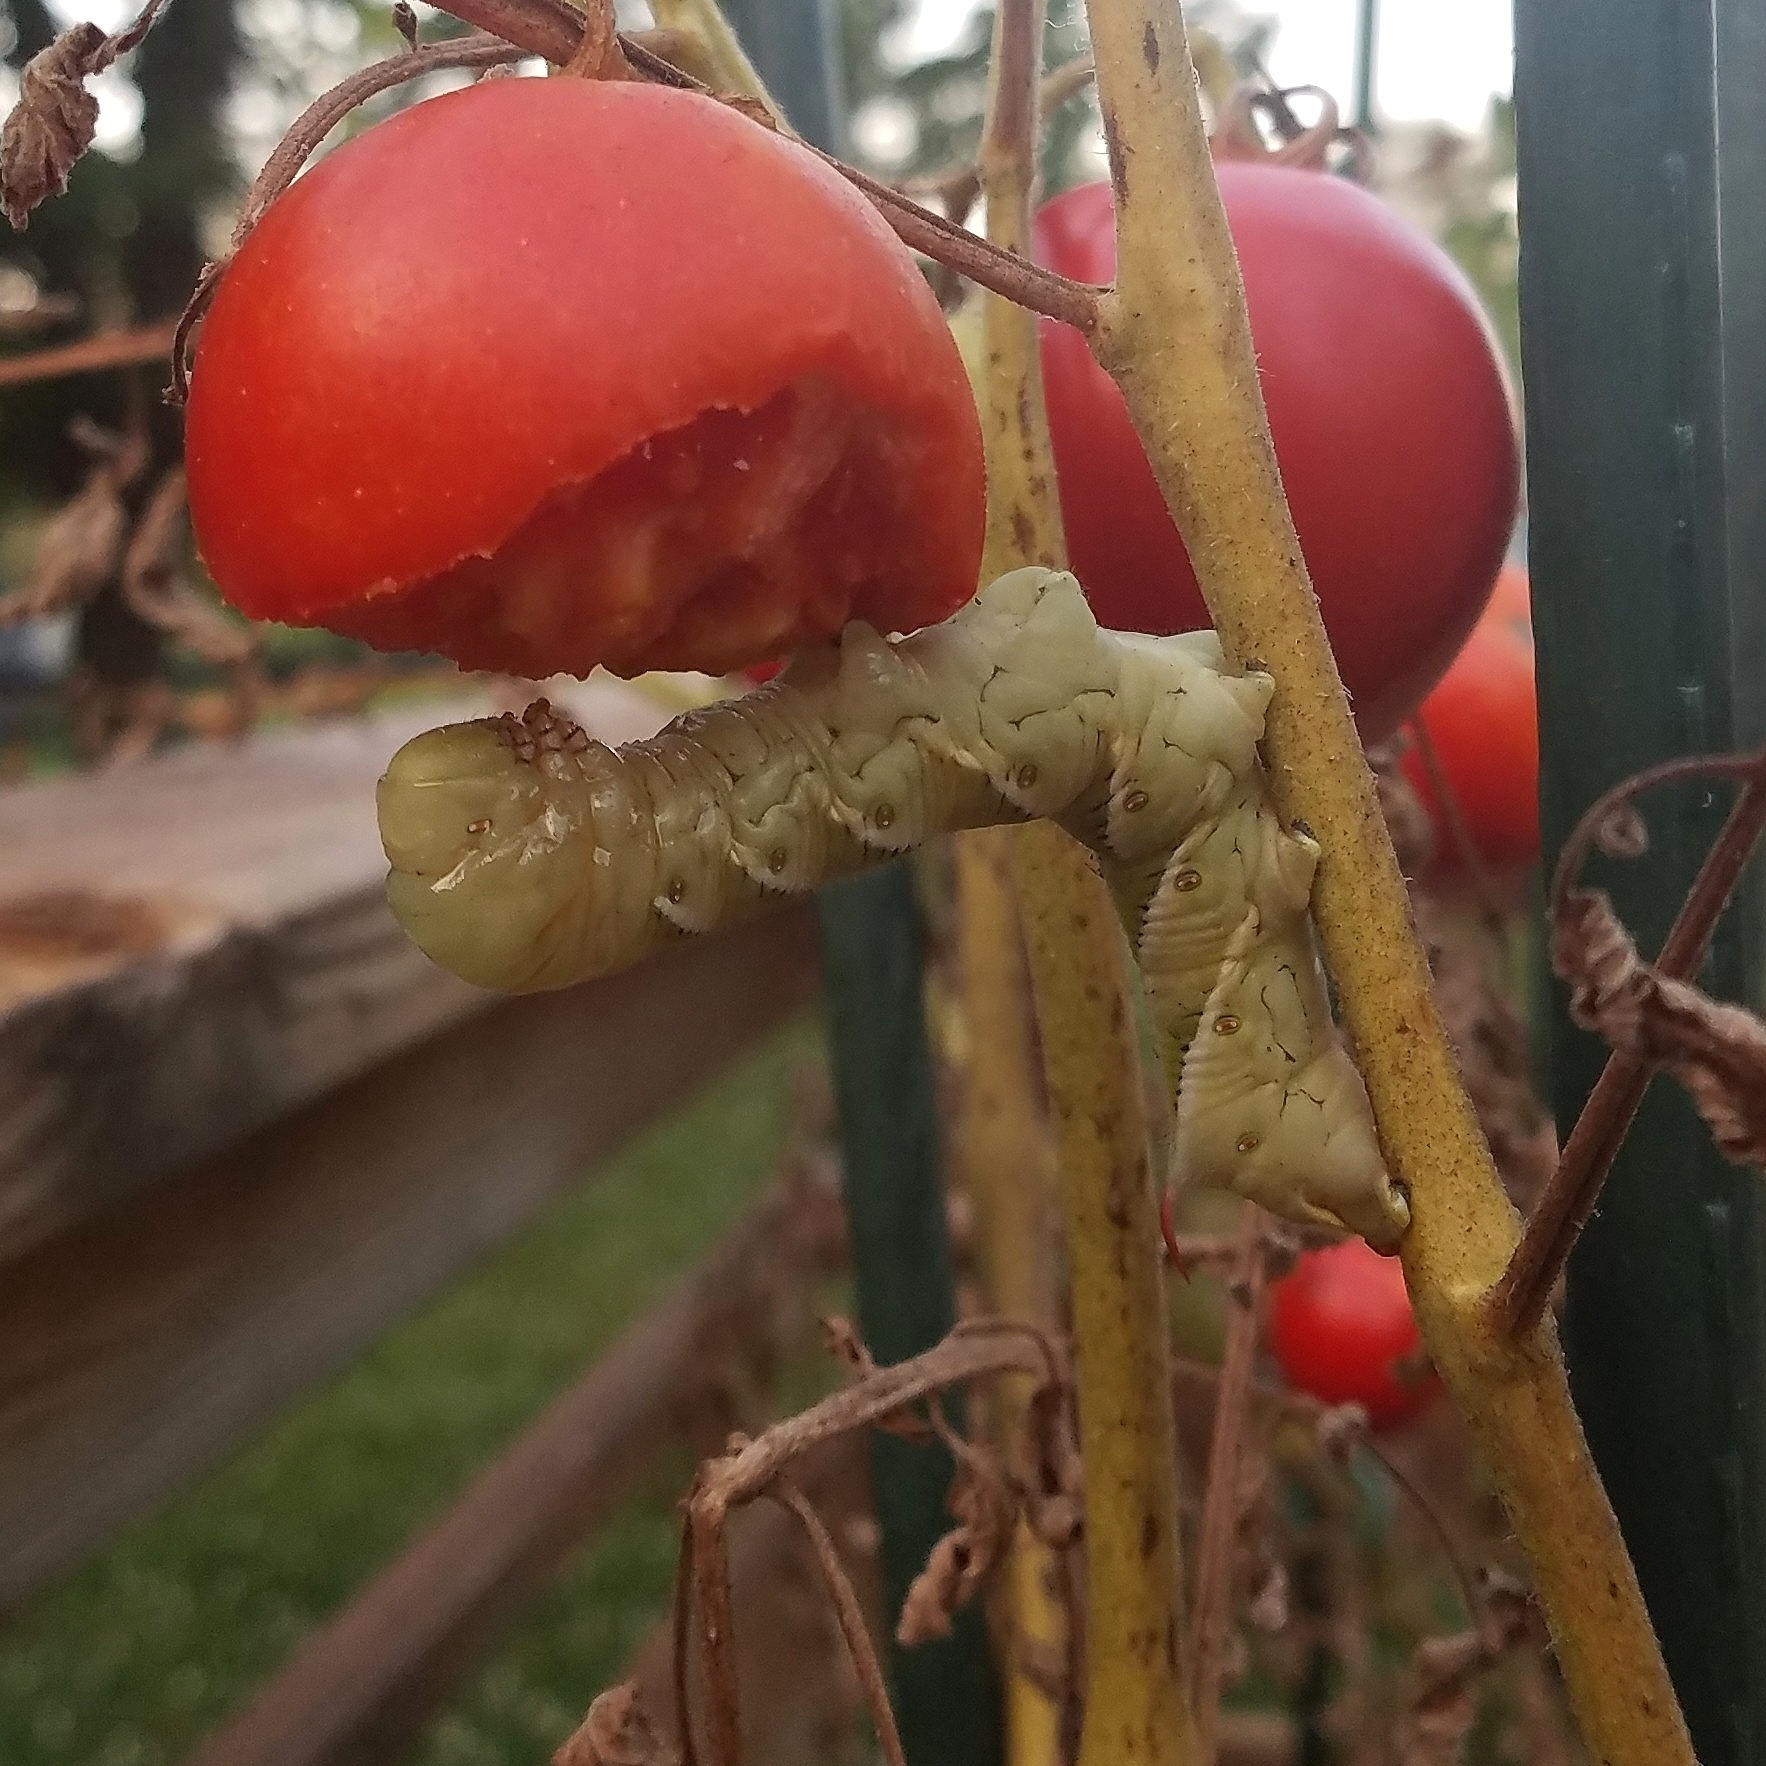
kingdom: Animalia
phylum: Arthropoda
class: Insecta
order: Lepidoptera
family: Sphingidae
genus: Manduca
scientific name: Manduca sexta
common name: Carolina sphinx
